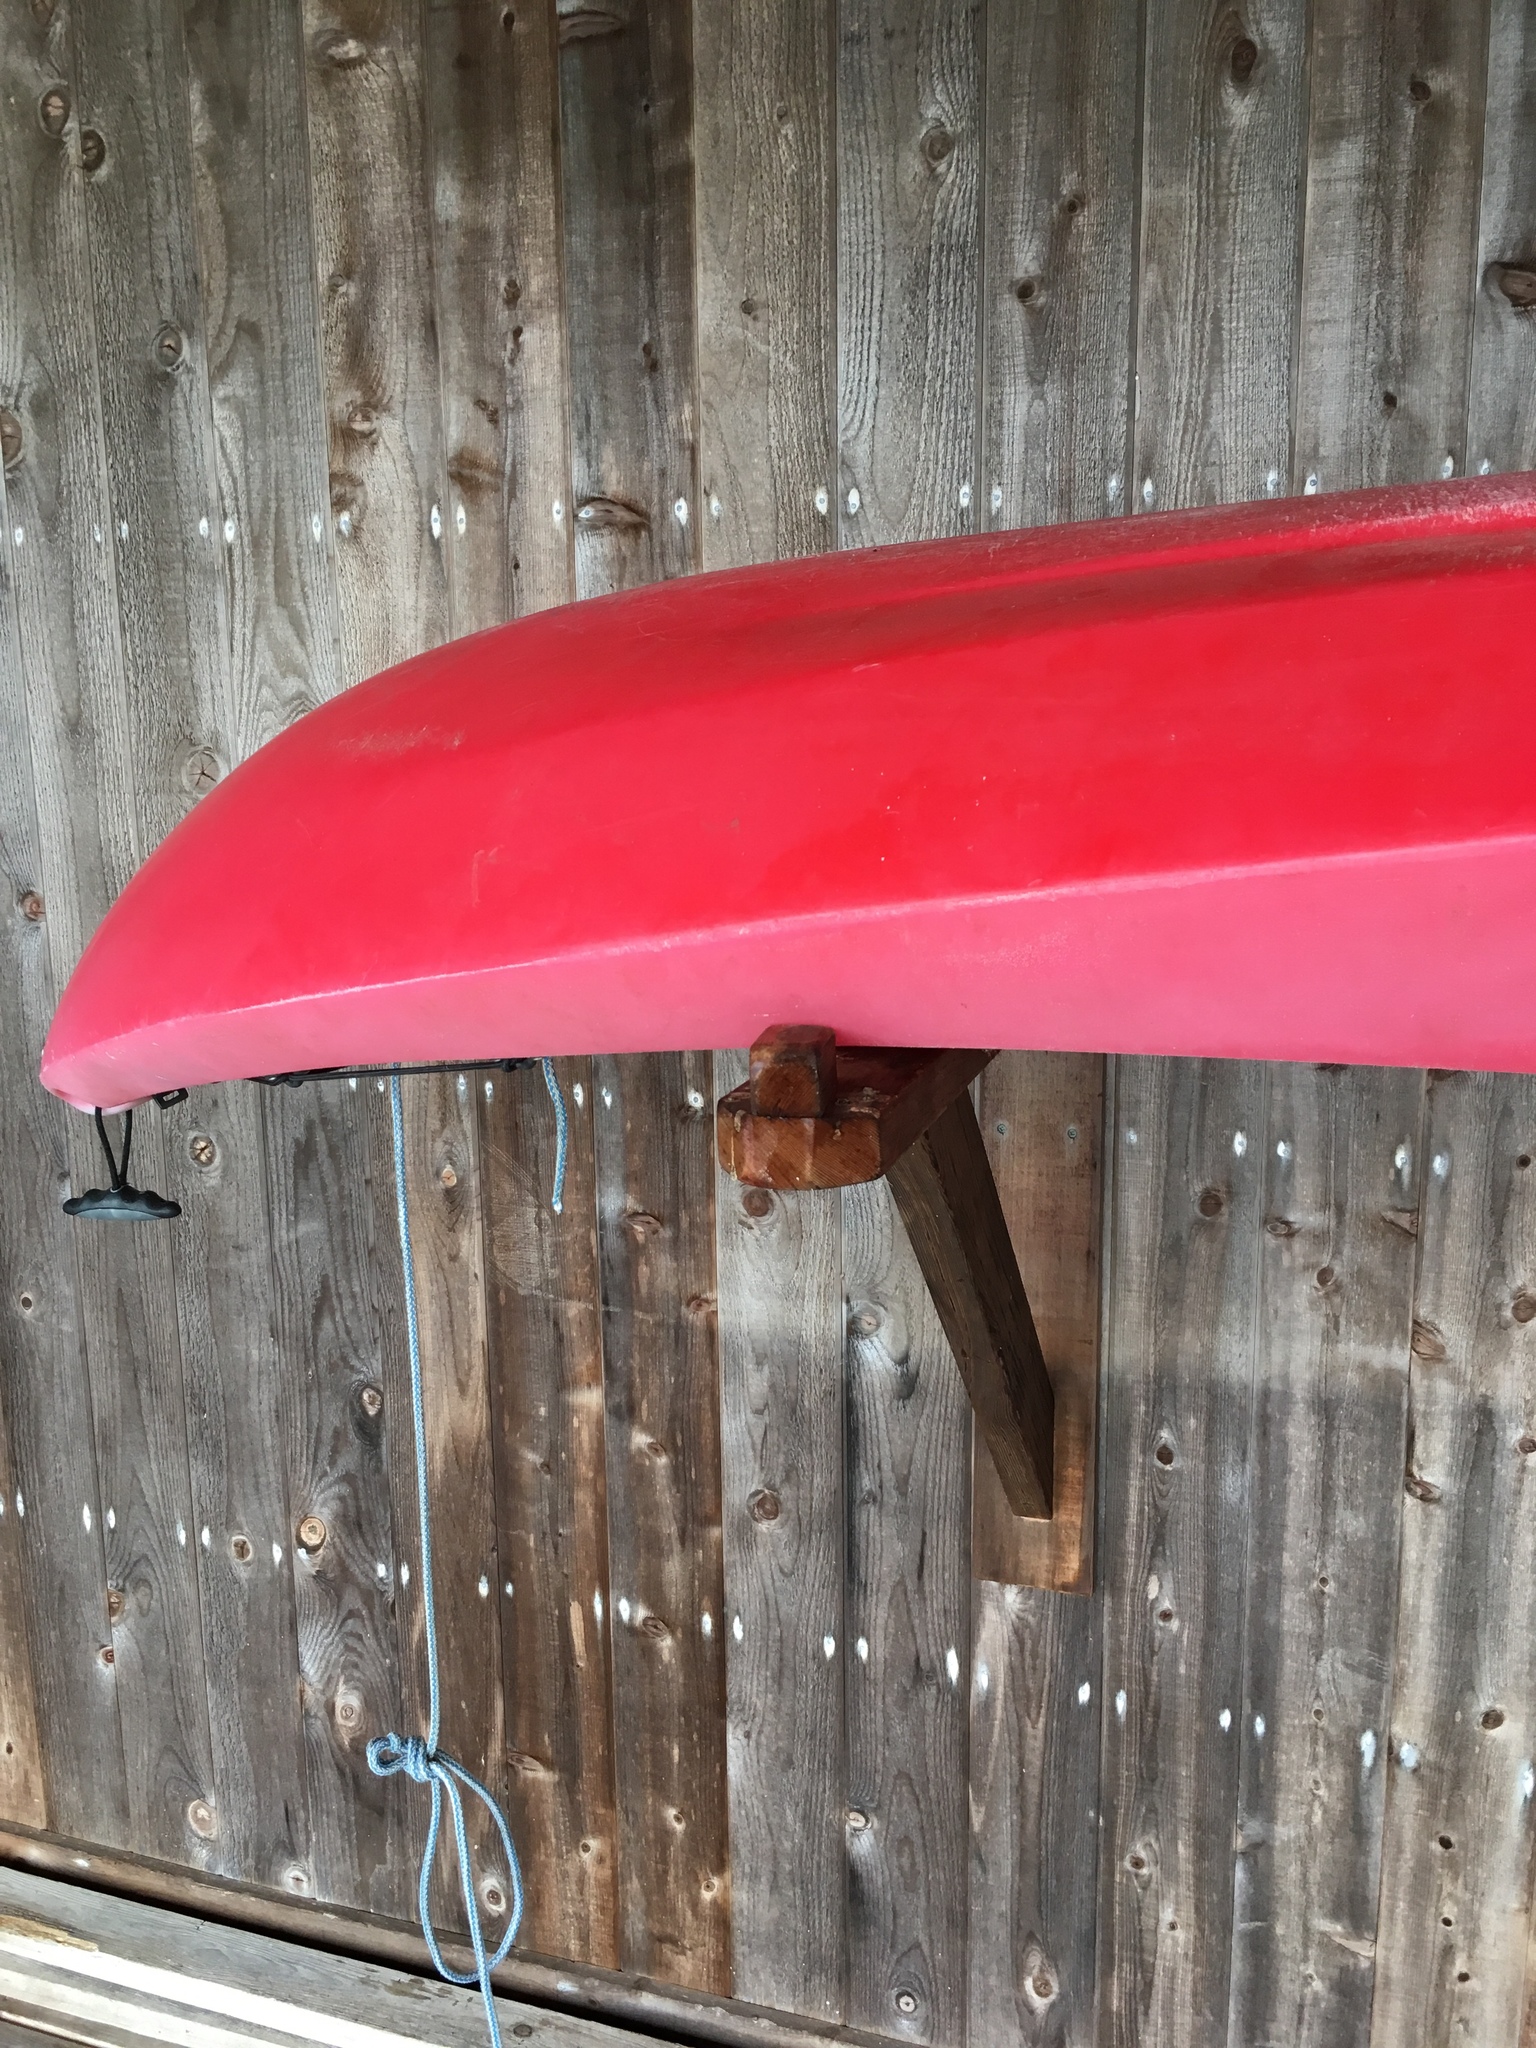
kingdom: Animalia
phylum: Chordata
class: Aves
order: Passeriformes
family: Tyrannidae
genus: Sayornis
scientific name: Sayornis phoebe
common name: Eastern phoebe
